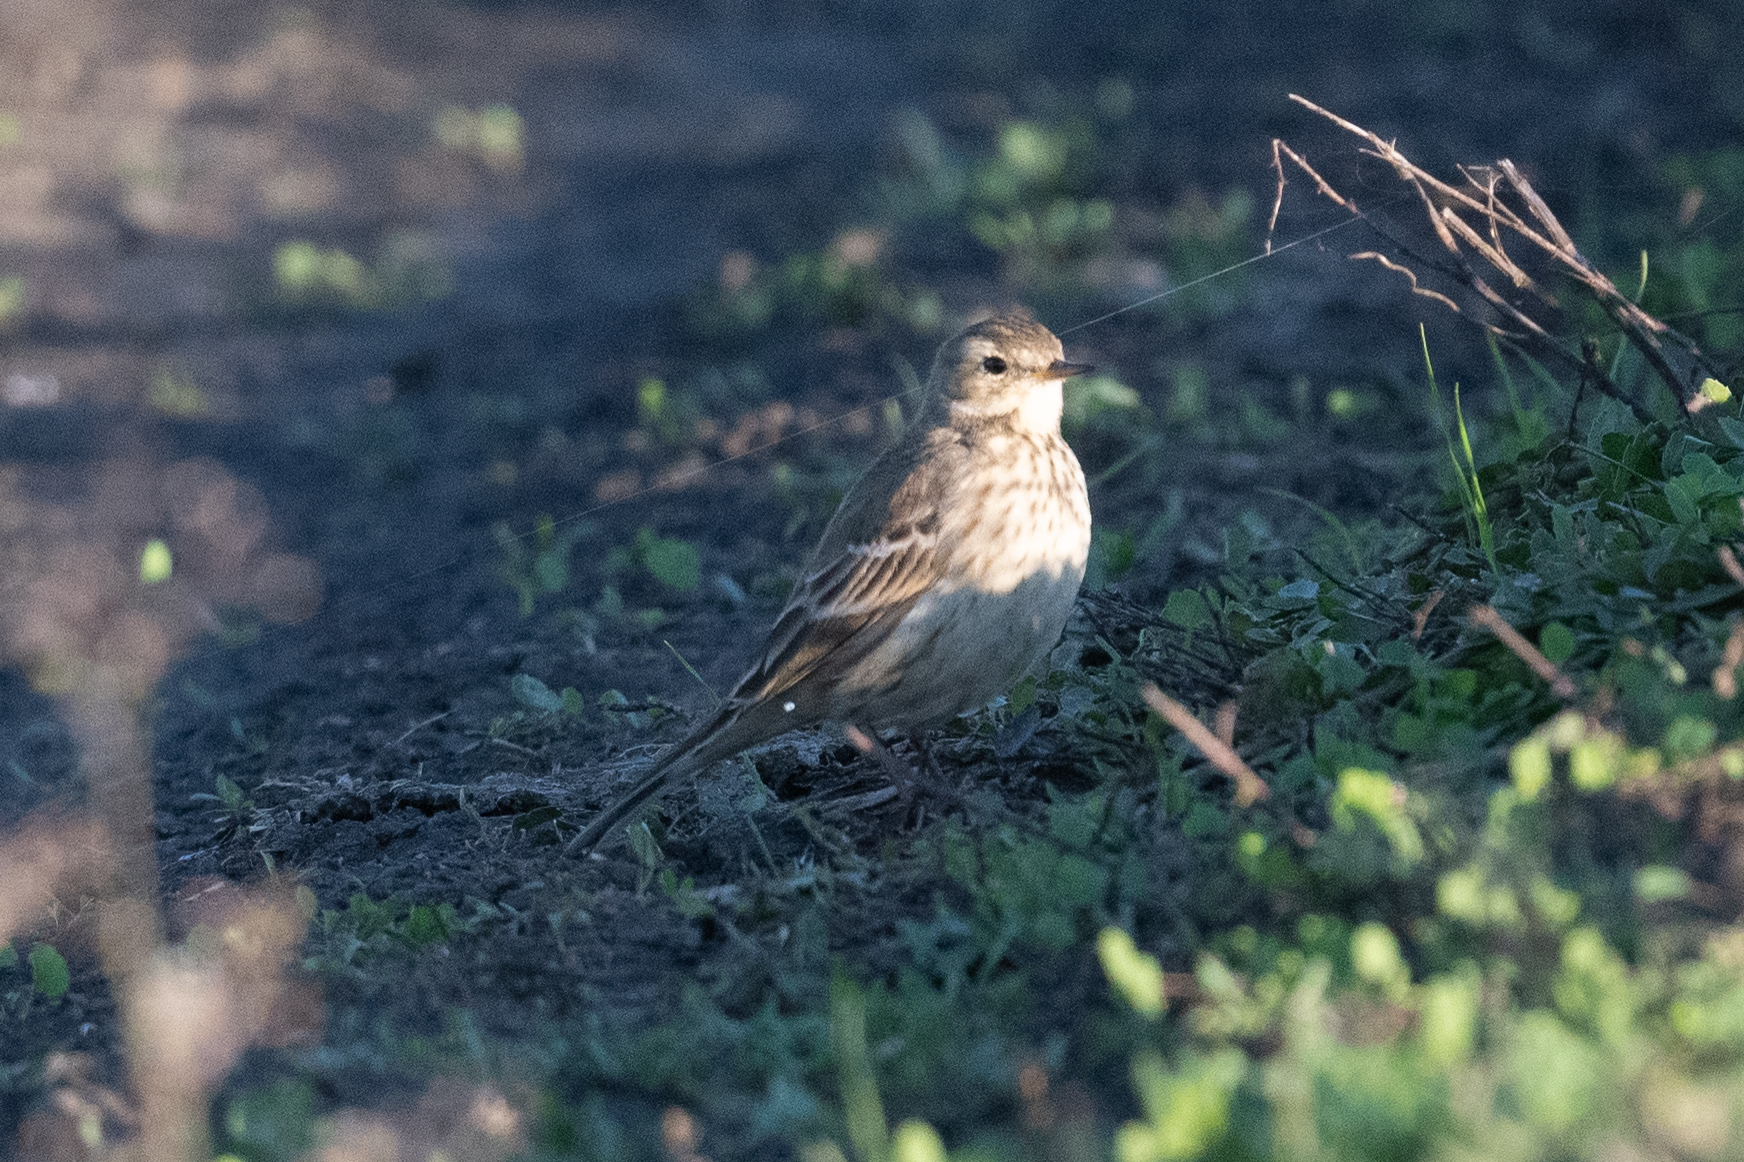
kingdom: Animalia
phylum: Chordata
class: Aves
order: Passeriformes
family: Motacillidae
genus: Anthus
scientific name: Anthus rubescens
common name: Buff-bellied pipit
